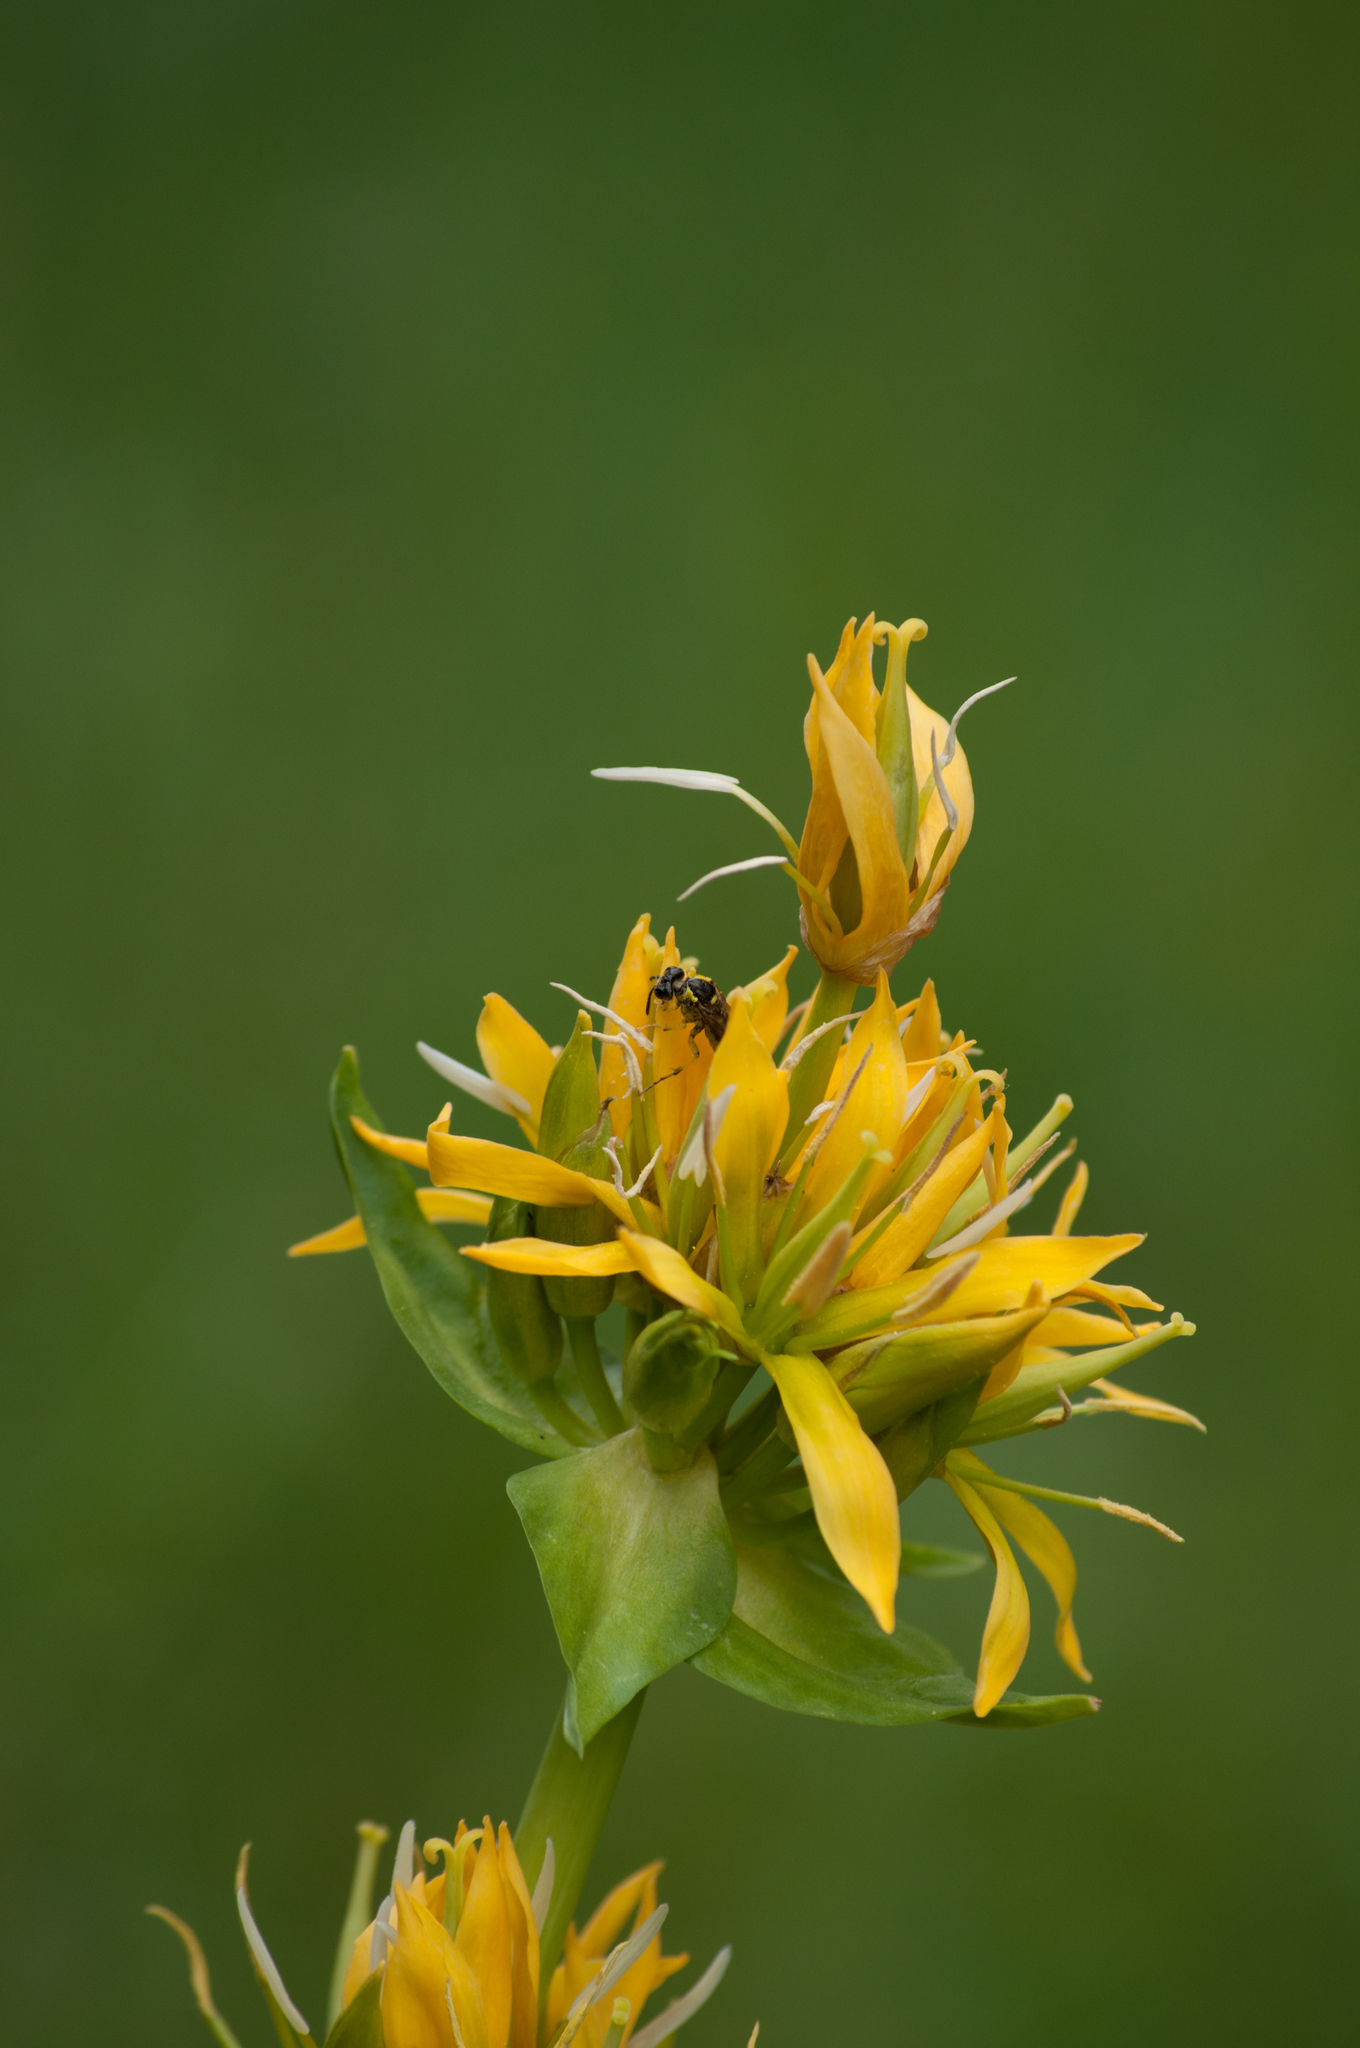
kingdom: Plantae
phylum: Tracheophyta
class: Magnoliopsida
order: Gentianales
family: Gentianaceae
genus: Gentiana
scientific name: Gentiana lutea
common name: Great yellow gentian
